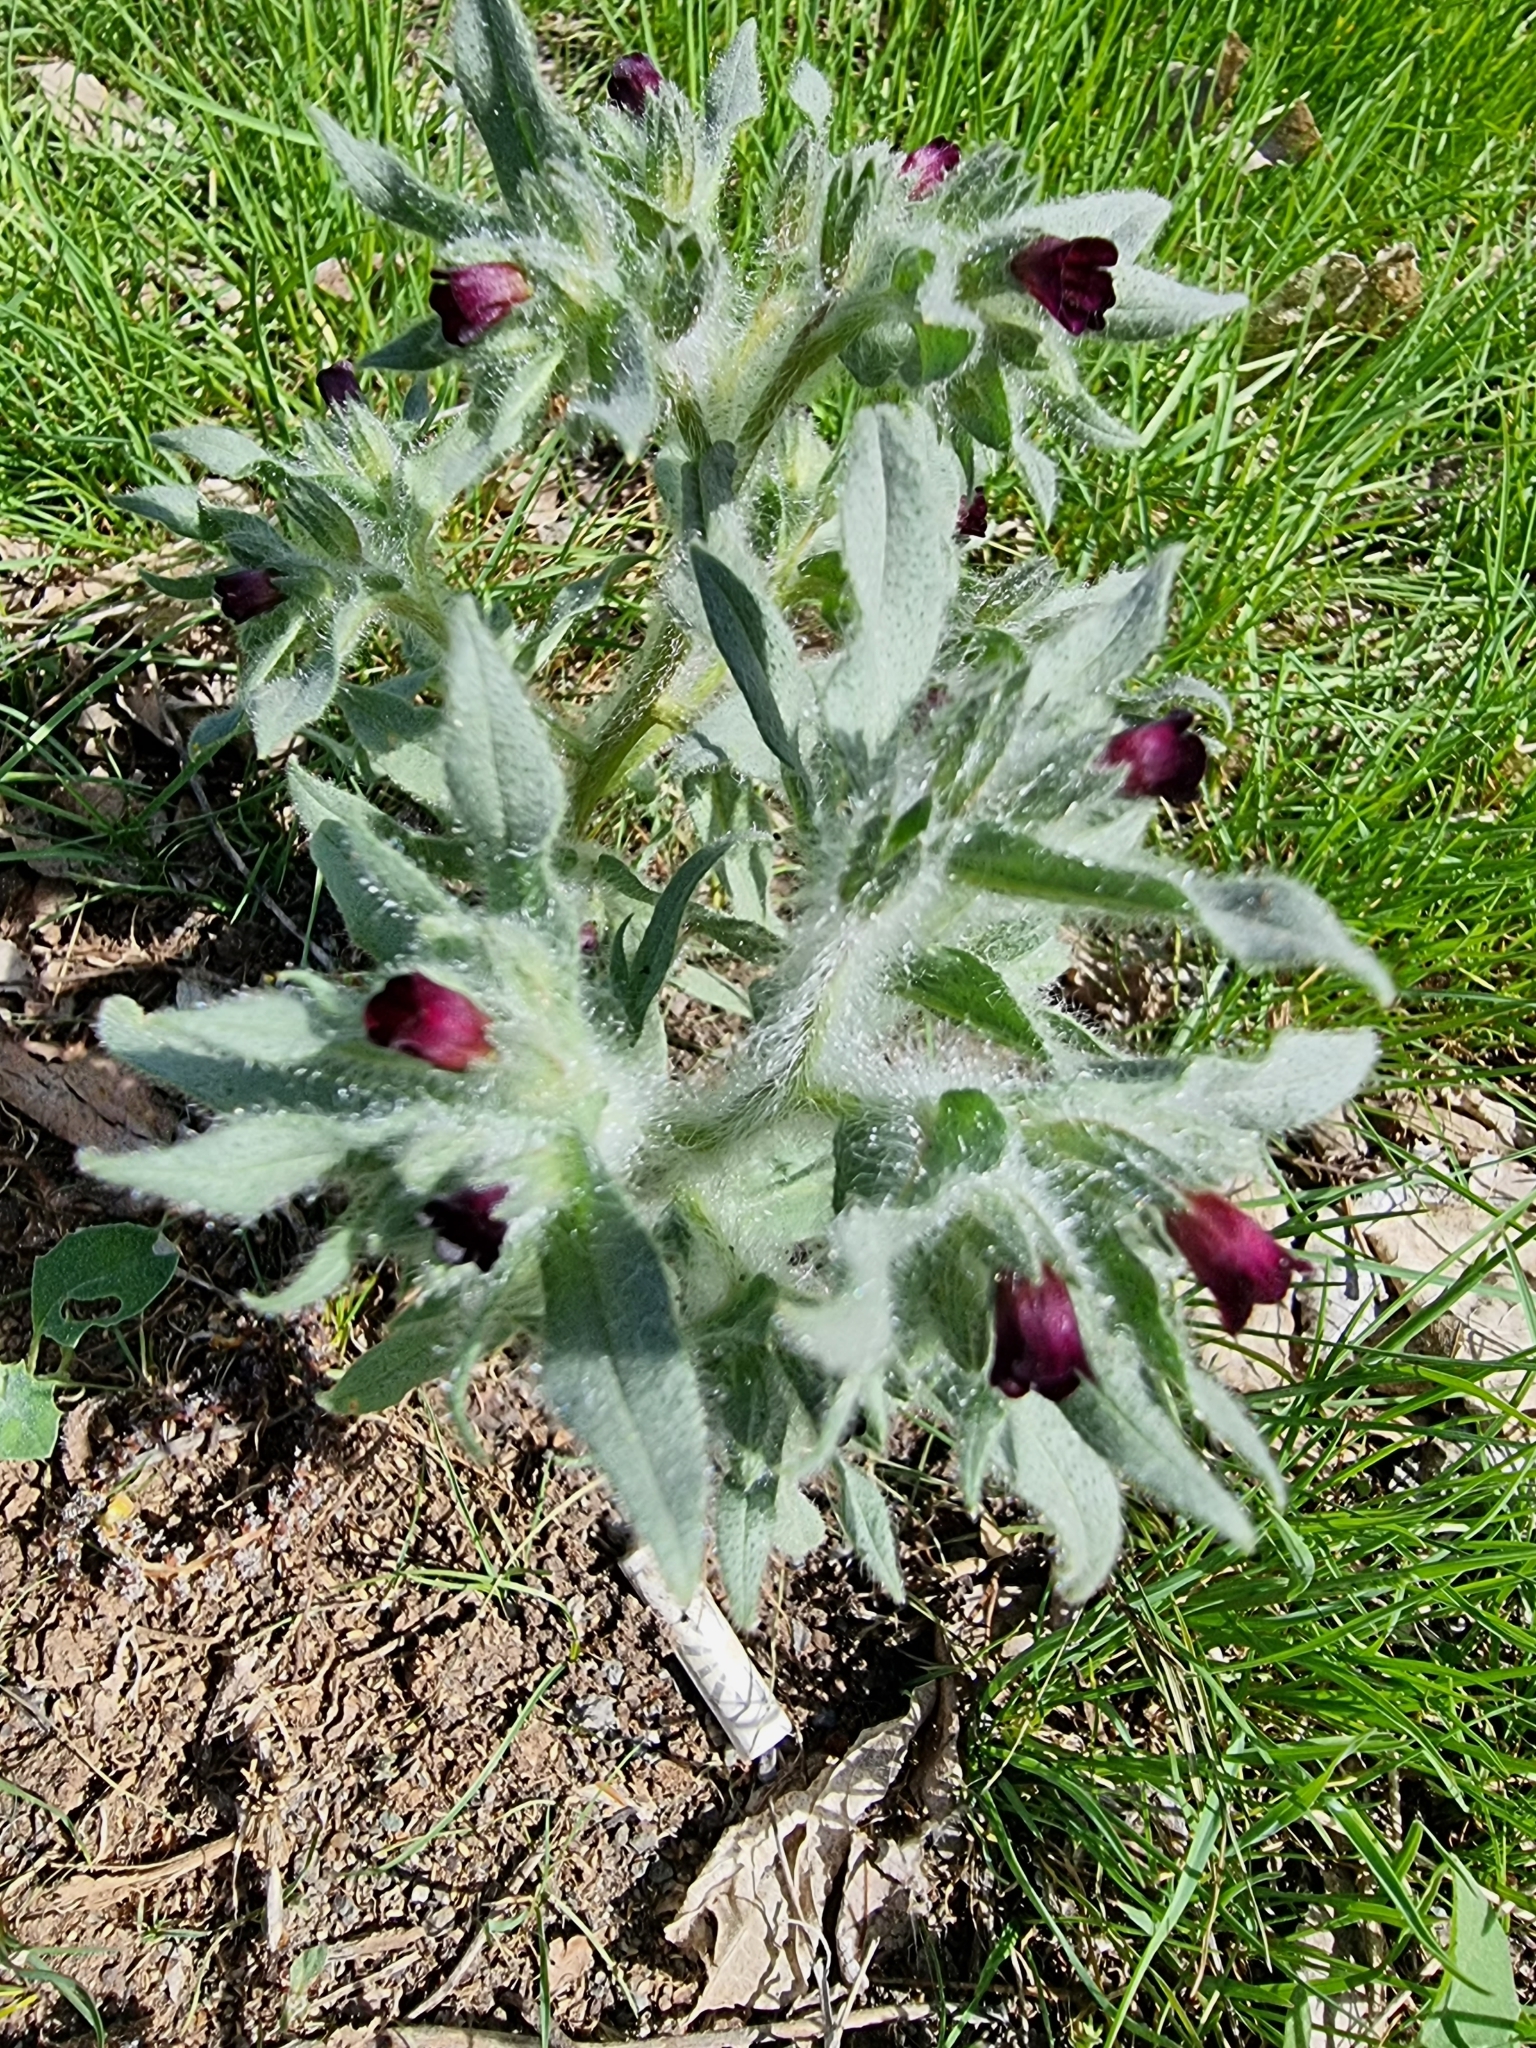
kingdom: Plantae
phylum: Tracheophyta
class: Magnoliopsida
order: Boraginales
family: Boraginaceae
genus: Nonea
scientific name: Nonea pulla
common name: Brown nonea
